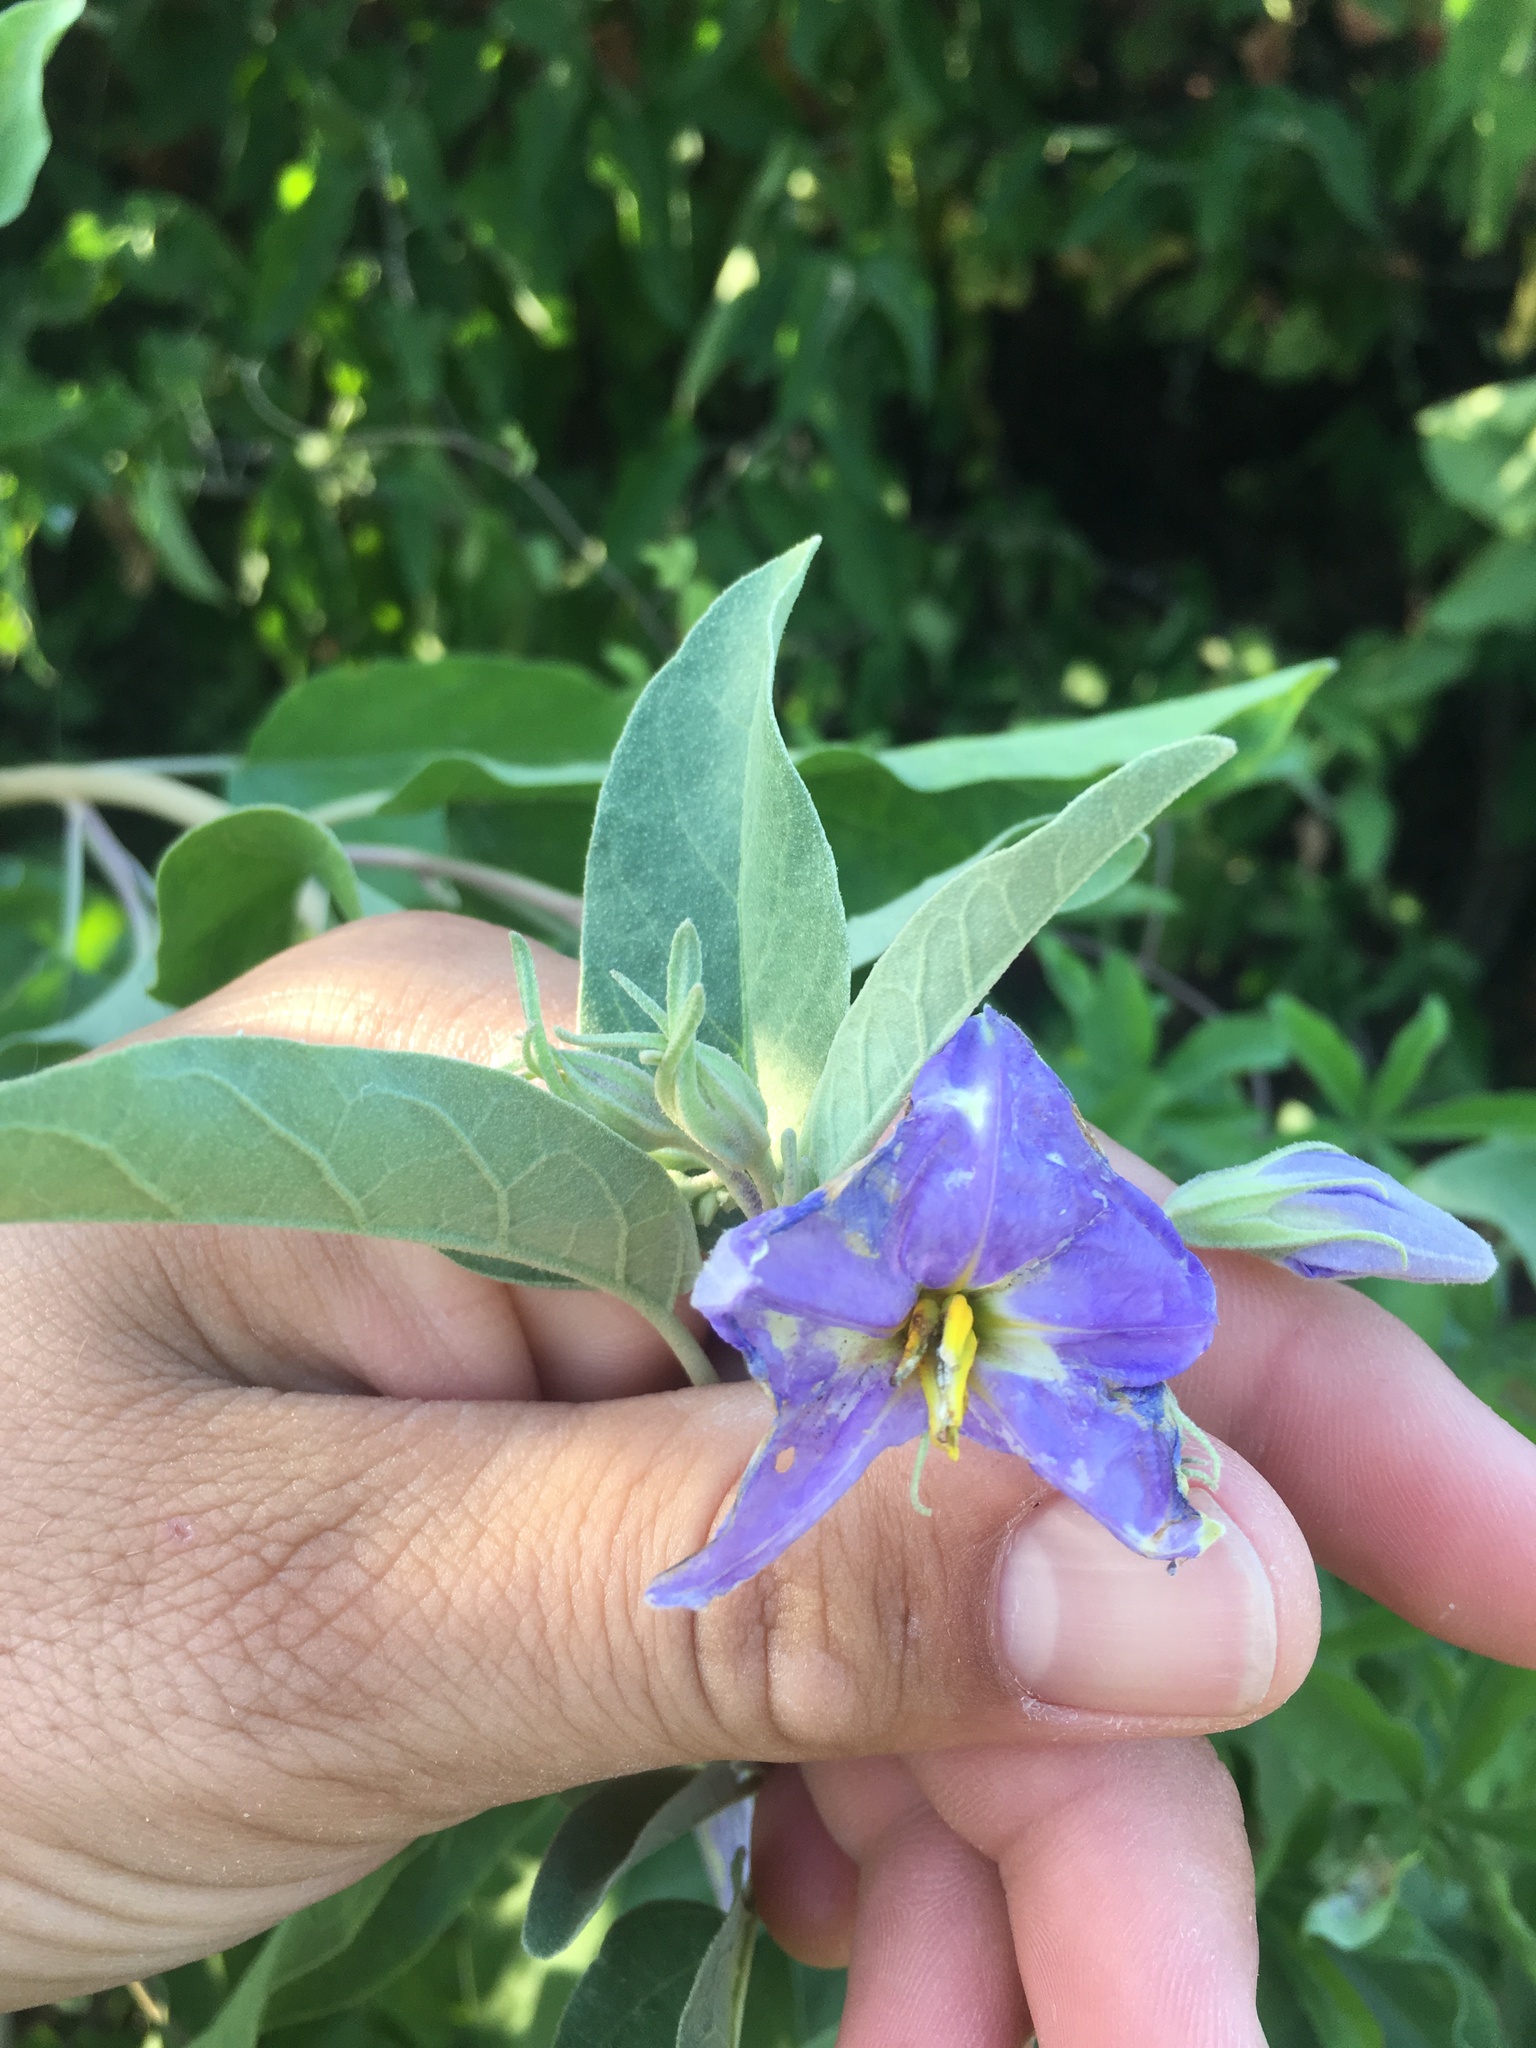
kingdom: Plantae
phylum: Tracheophyta
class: Magnoliopsida
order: Solanales
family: Solanaceae
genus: Solanum
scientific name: Solanum hindsianum
